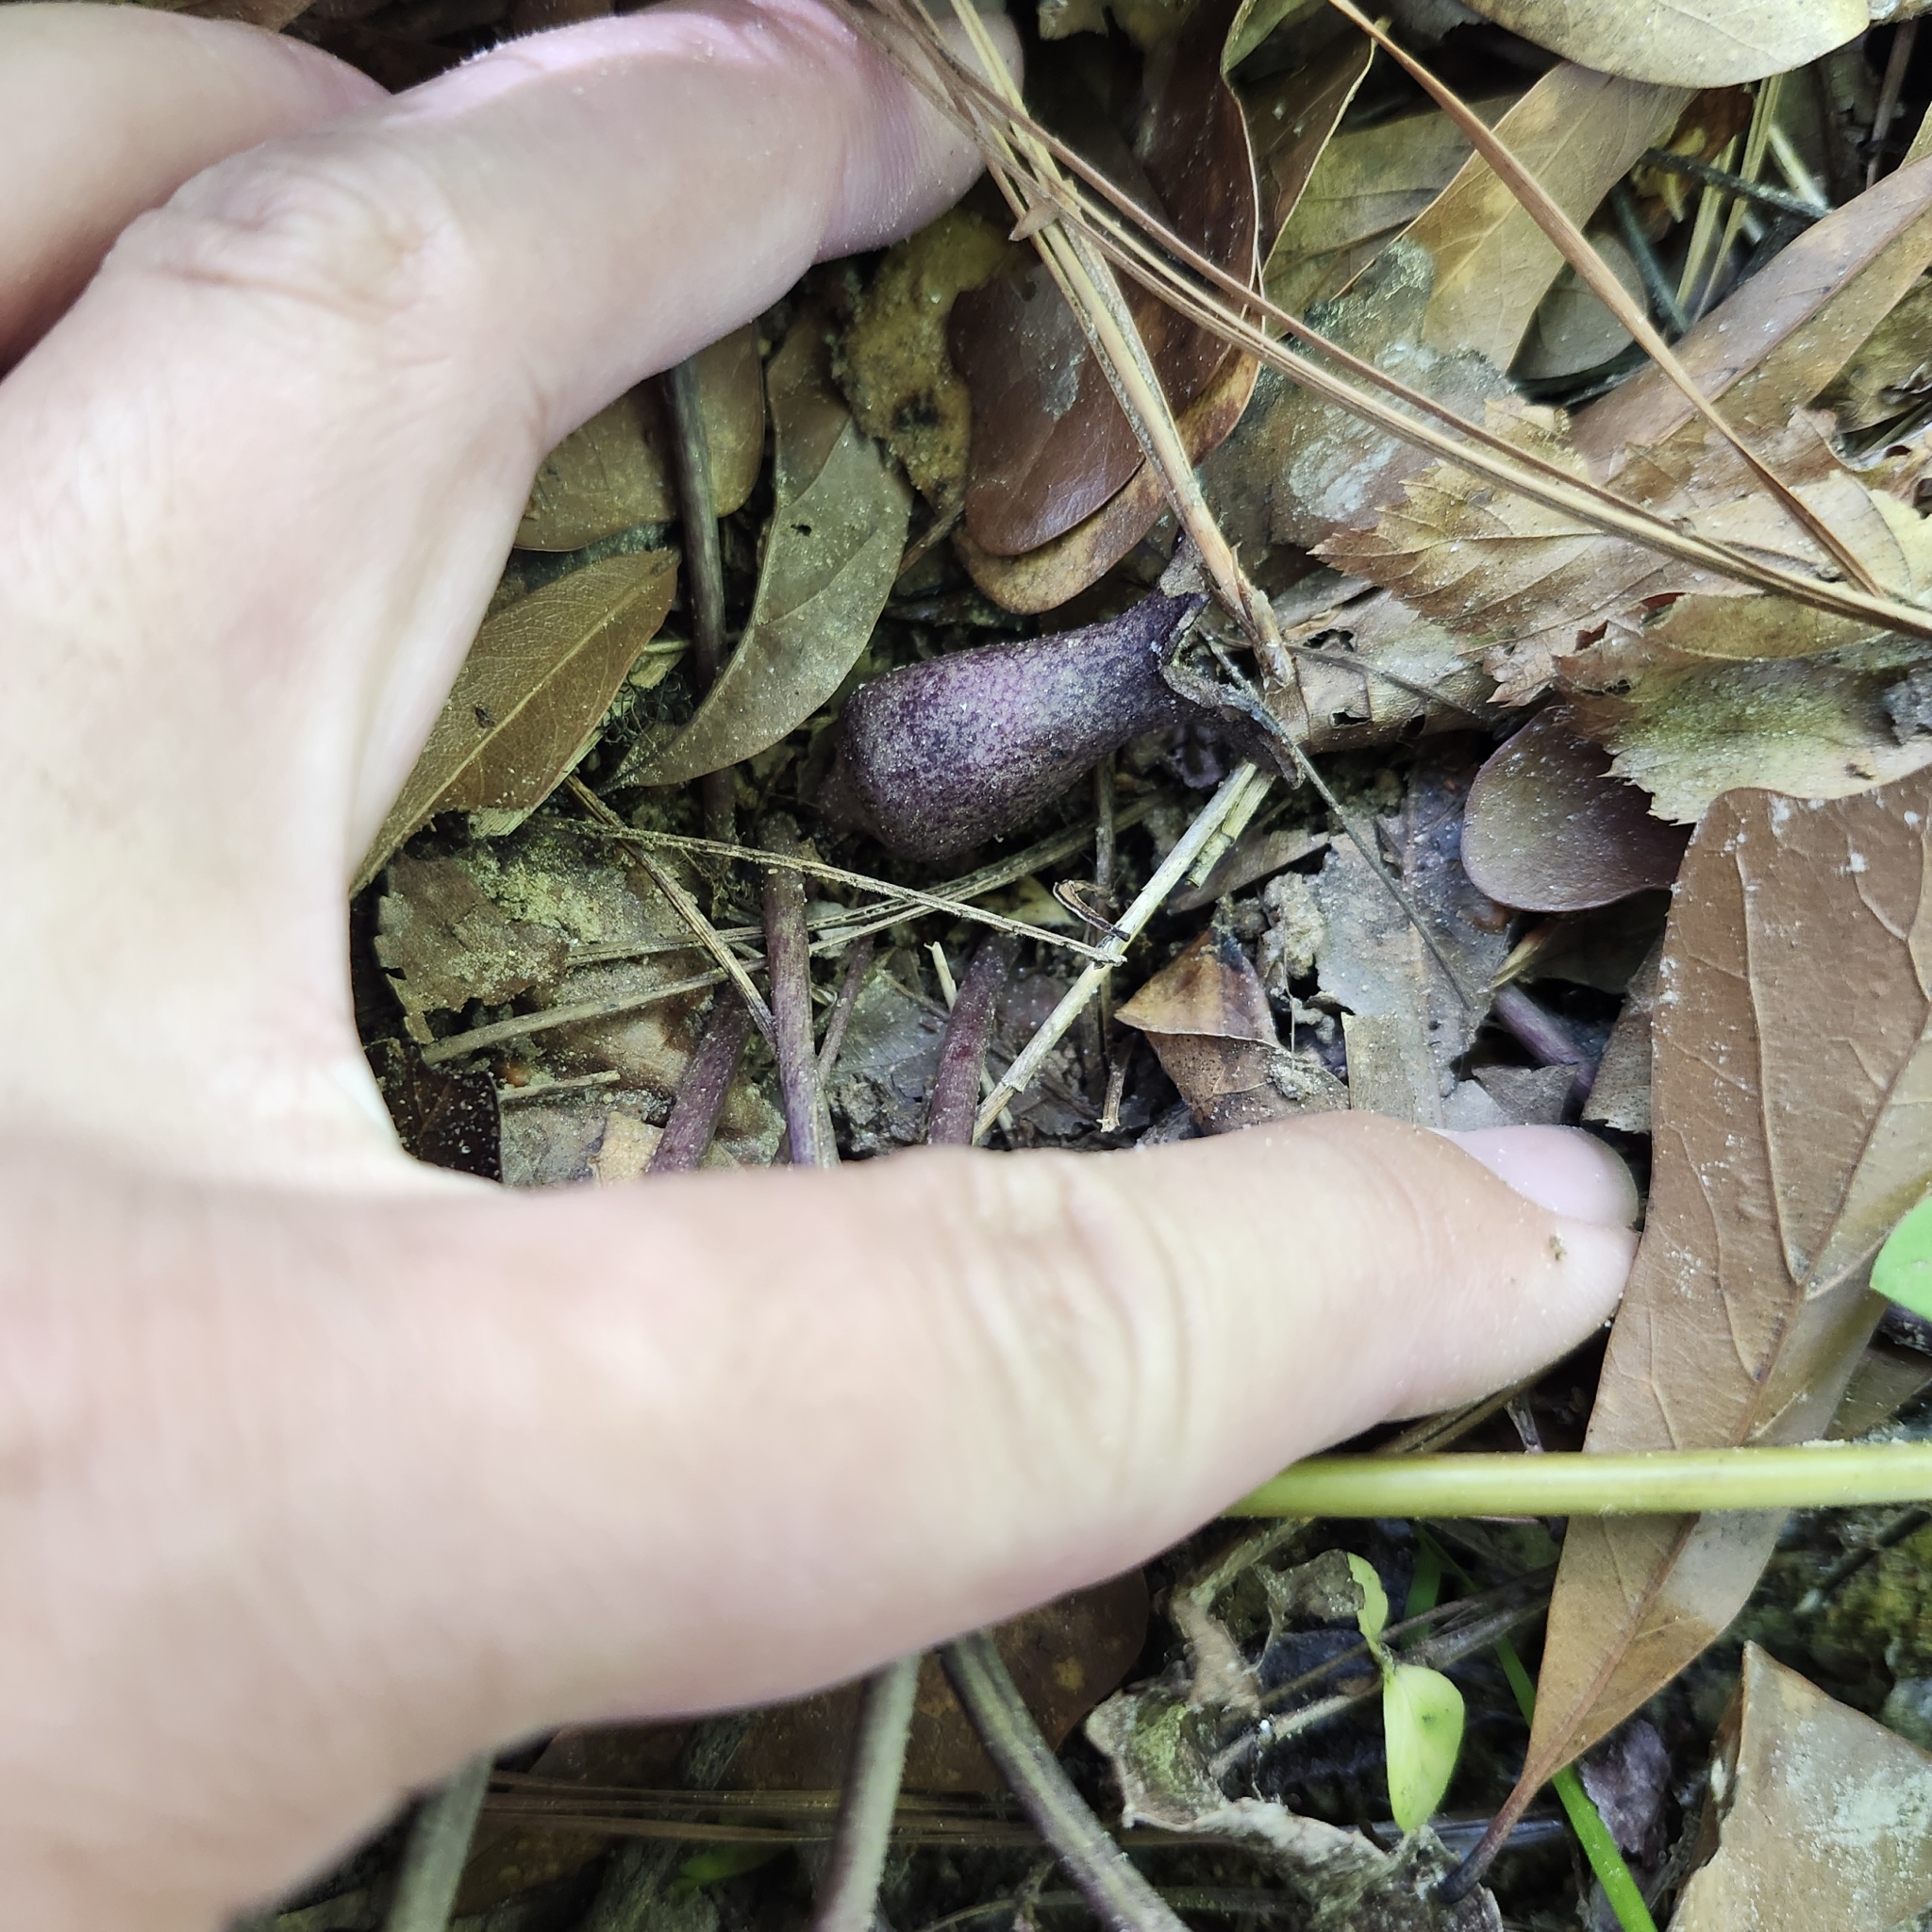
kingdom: Plantae
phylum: Tracheophyta
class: Magnoliopsida
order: Piperales
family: Aristolochiaceae
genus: Hexastylis
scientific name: Hexastylis arifolia
